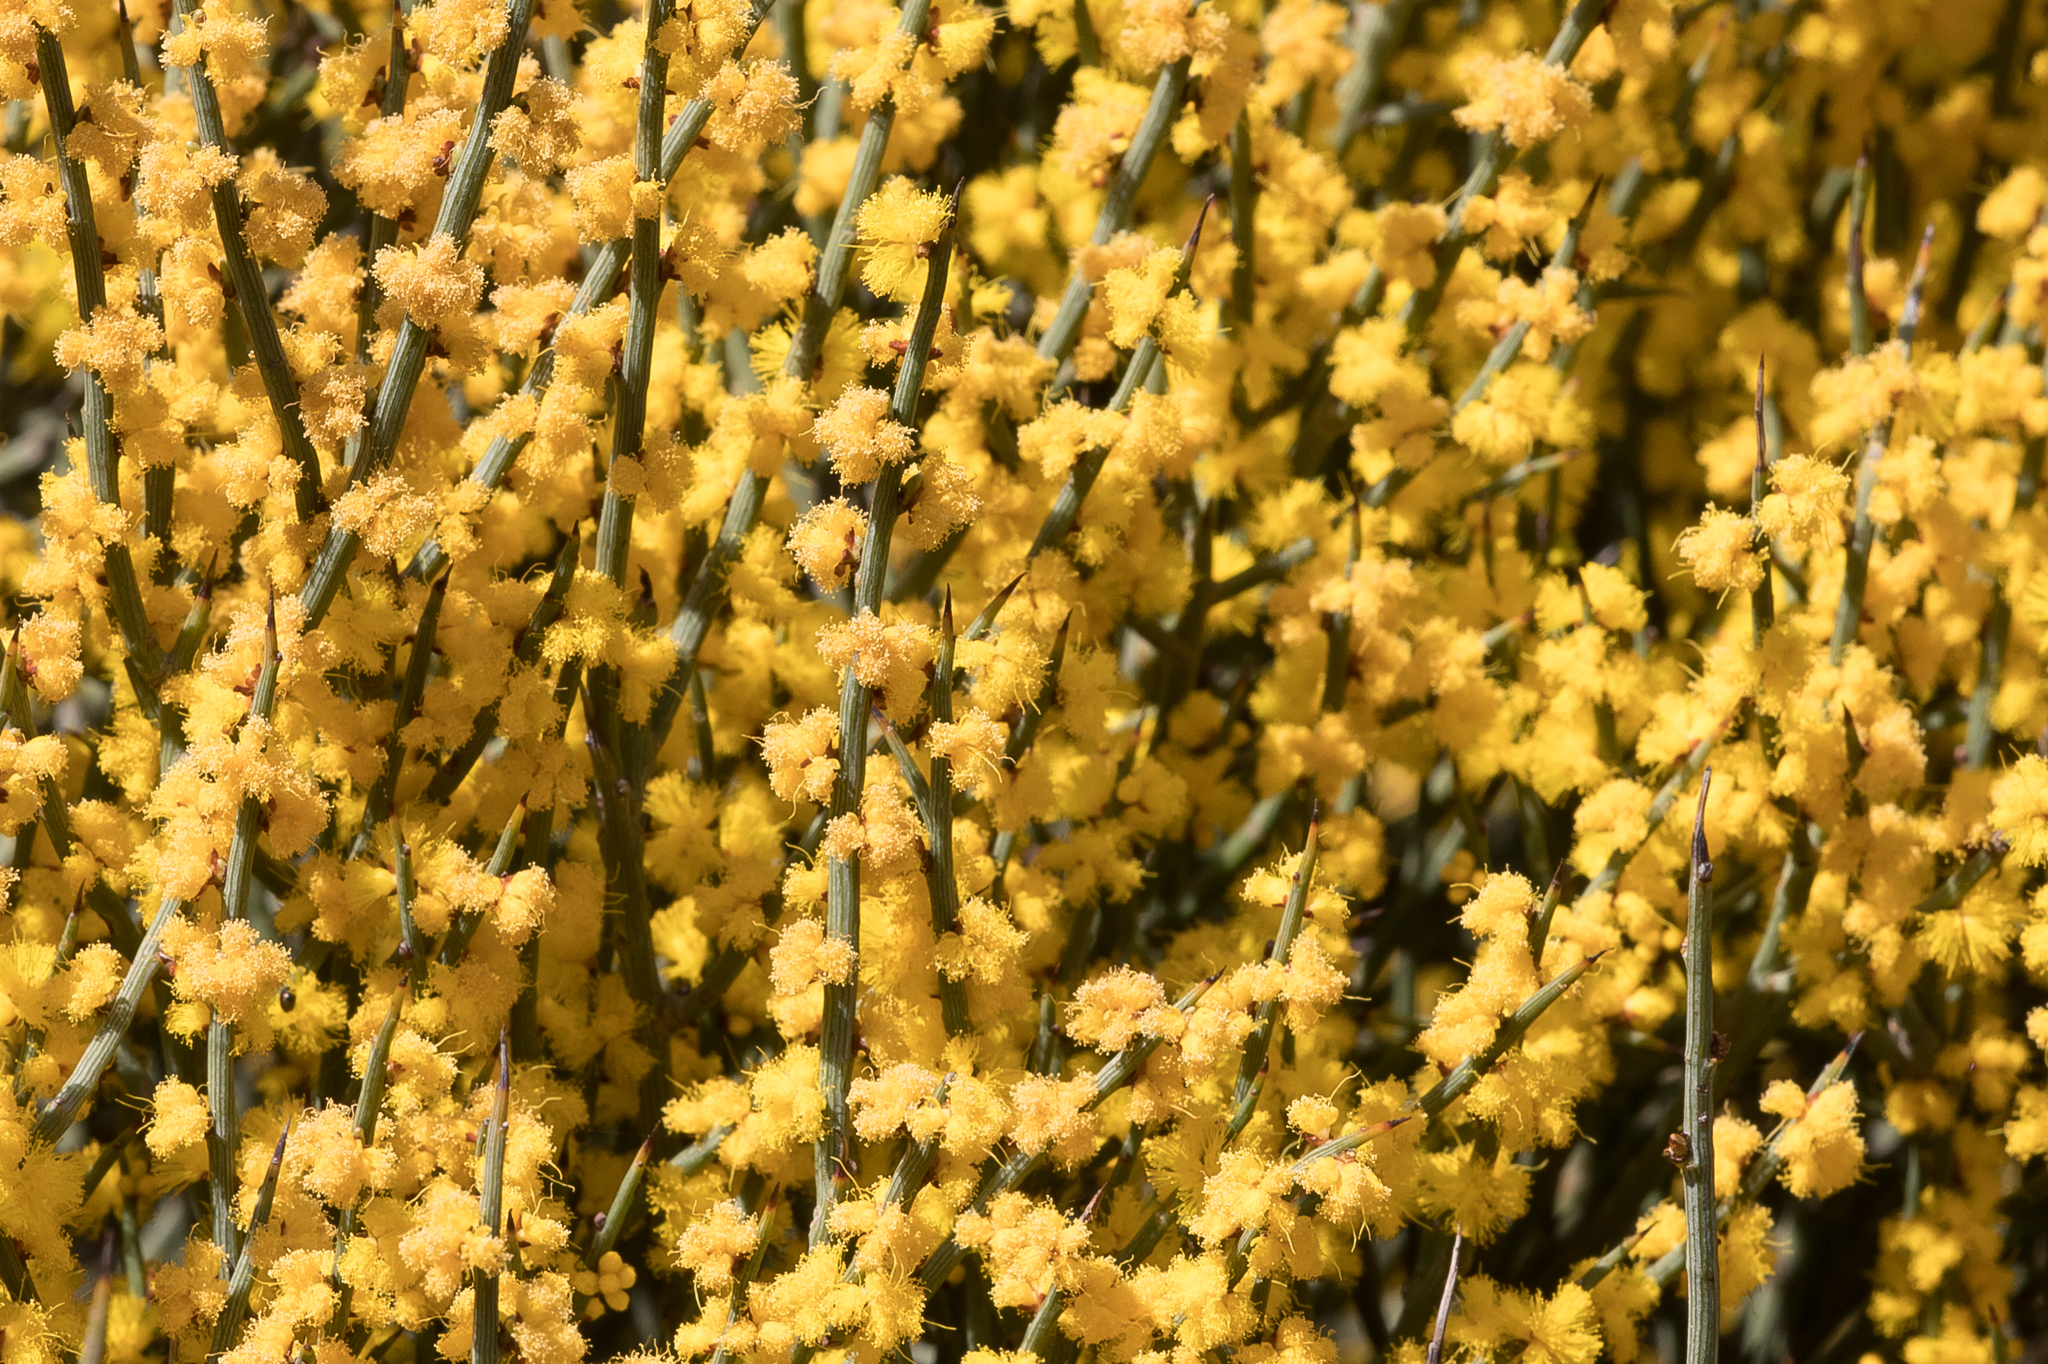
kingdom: Plantae
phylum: Tracheophyta
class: Magnoliopsida
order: Fabales
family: Fabaceae
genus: Acacia
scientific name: Acacia spinescens
